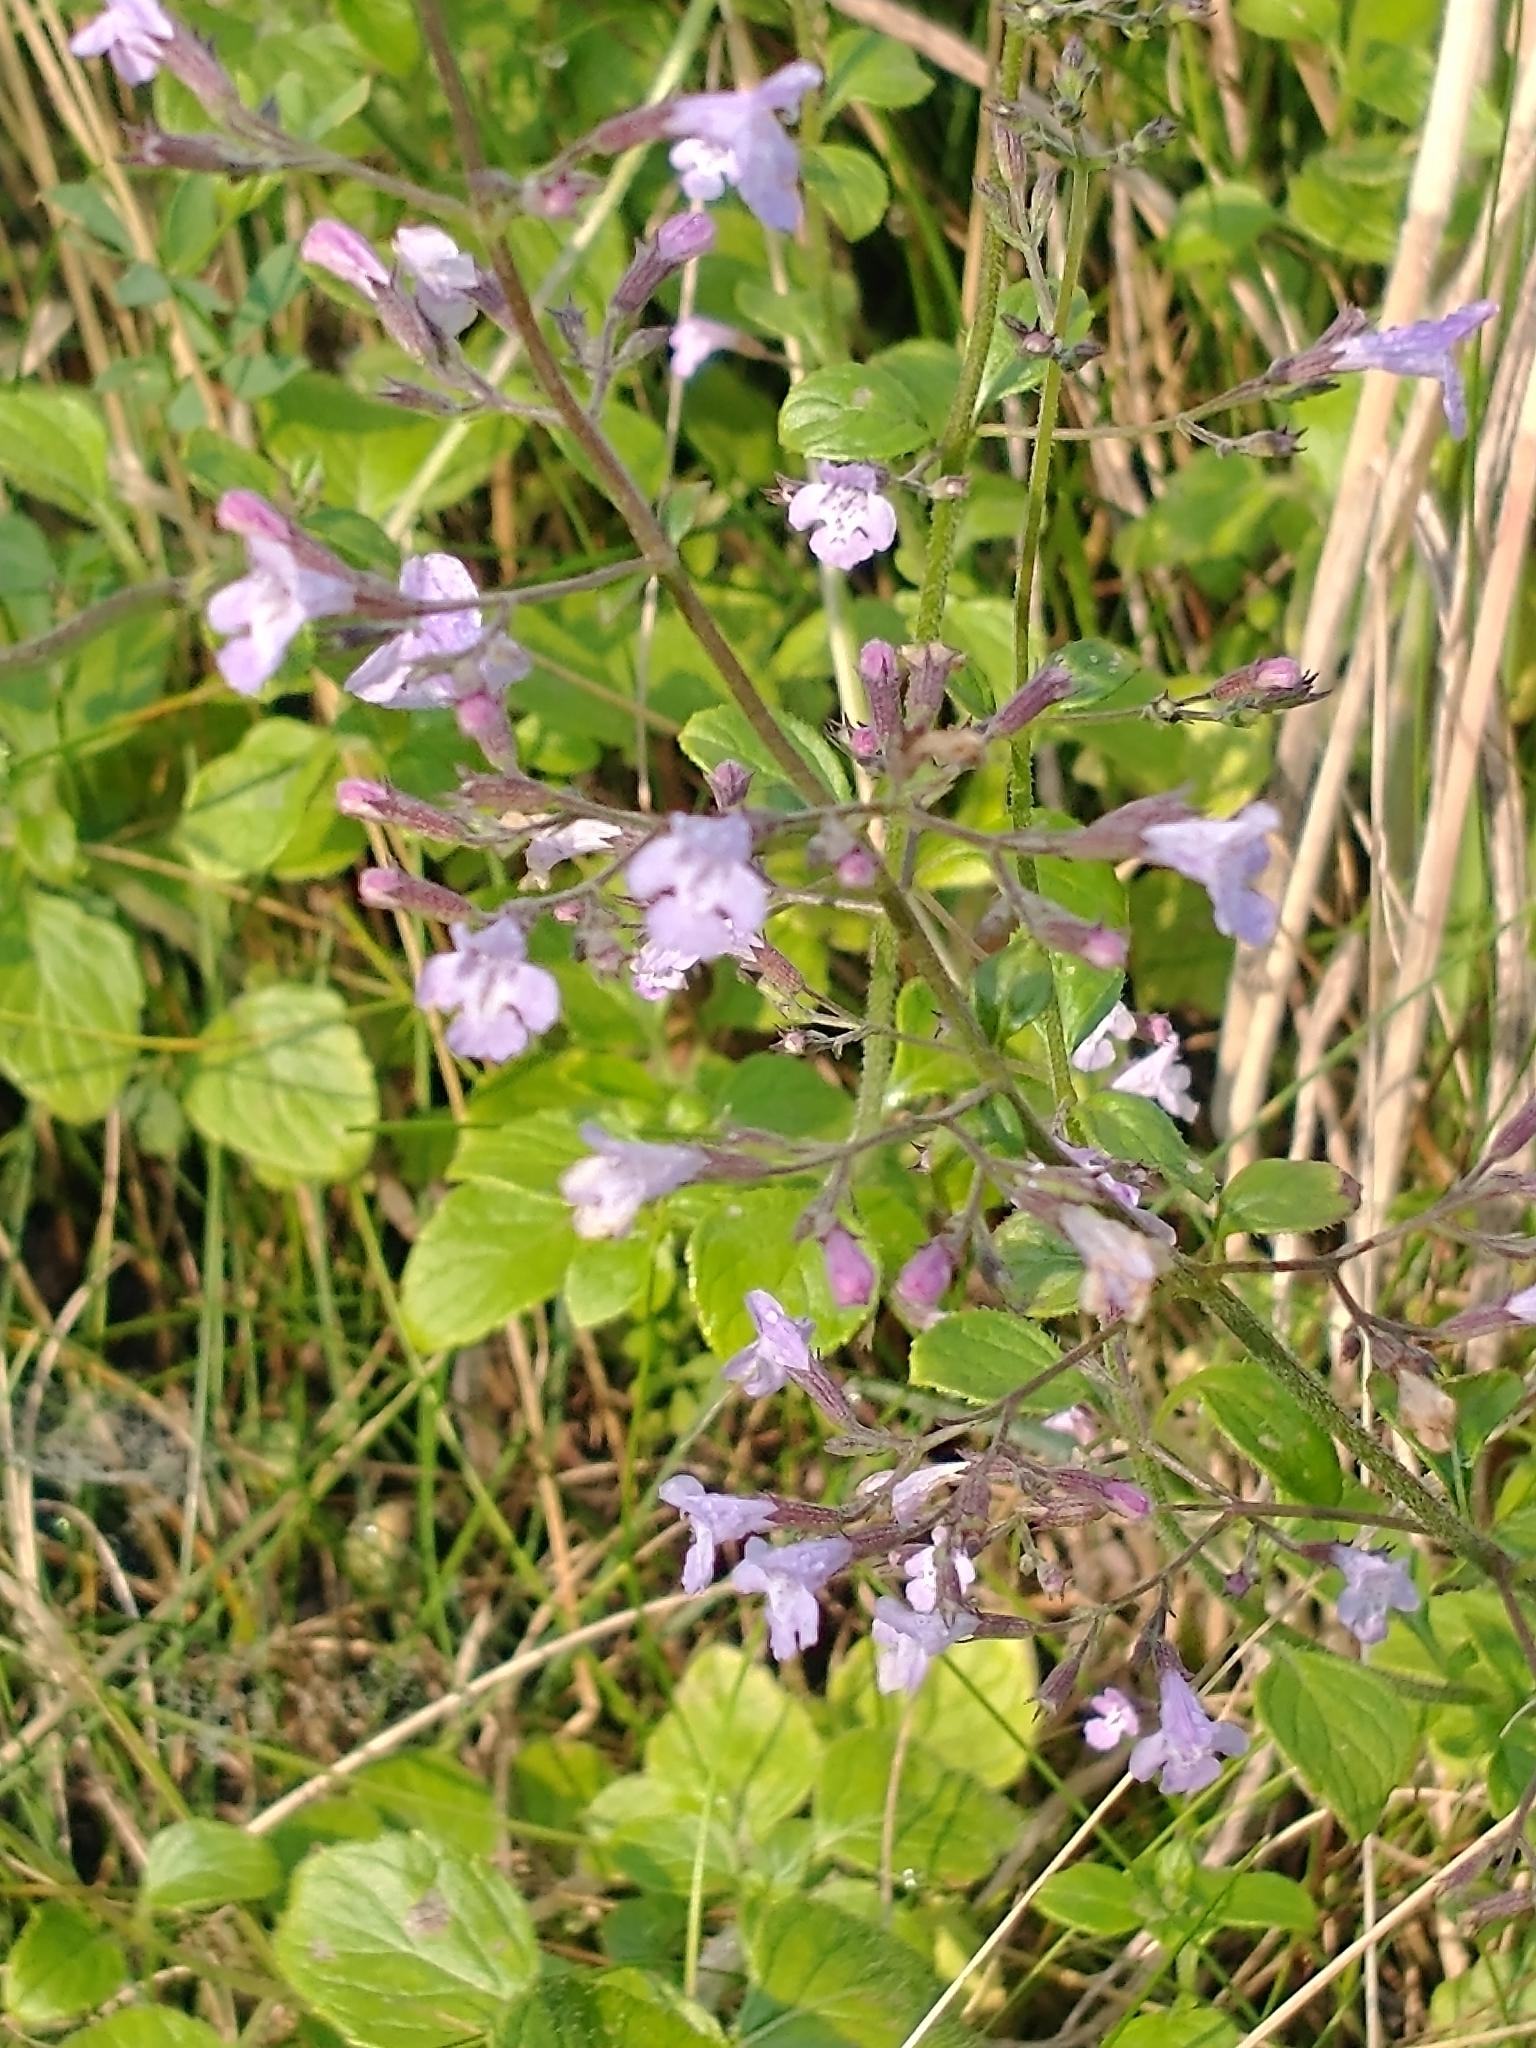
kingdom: Plantae
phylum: Tracheophyta
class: Magnoliopsida
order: Lamiales
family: Lamiaceae
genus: Clinopodium
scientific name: Clinopodium nepeta
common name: Lesser calamint
